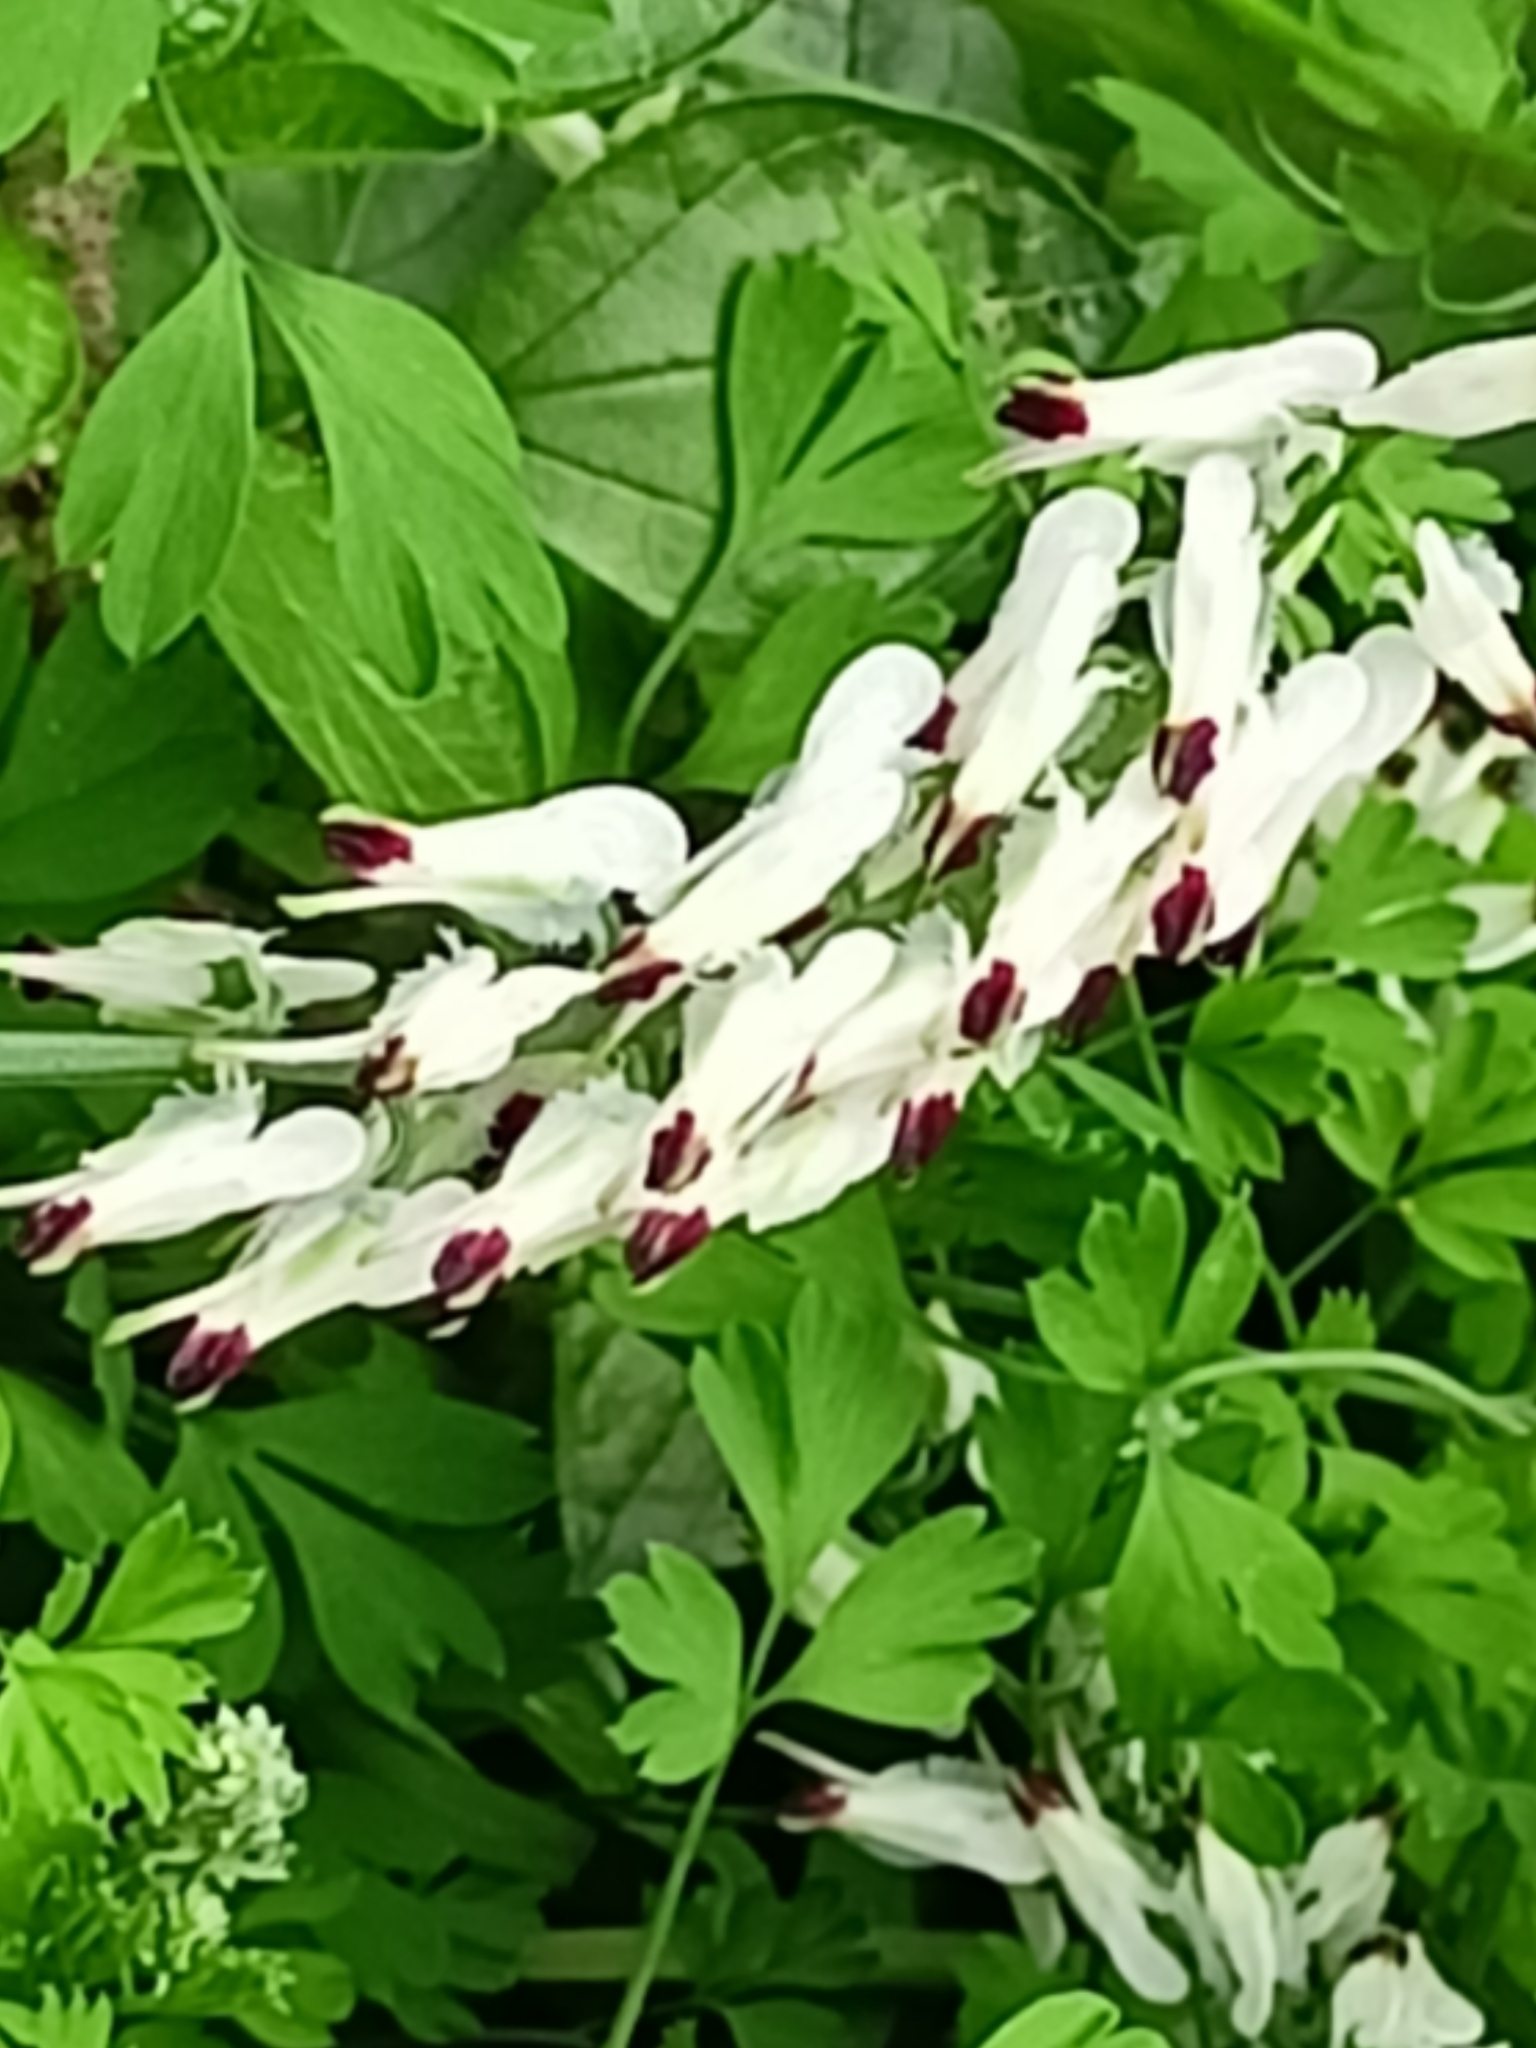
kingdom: Plantae
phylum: Tracheophyta
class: Magnoliopsida
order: Ranunculales
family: Papaveraceae
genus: Fumaria
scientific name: Fumaria capreolata
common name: White ramping-fumitory
